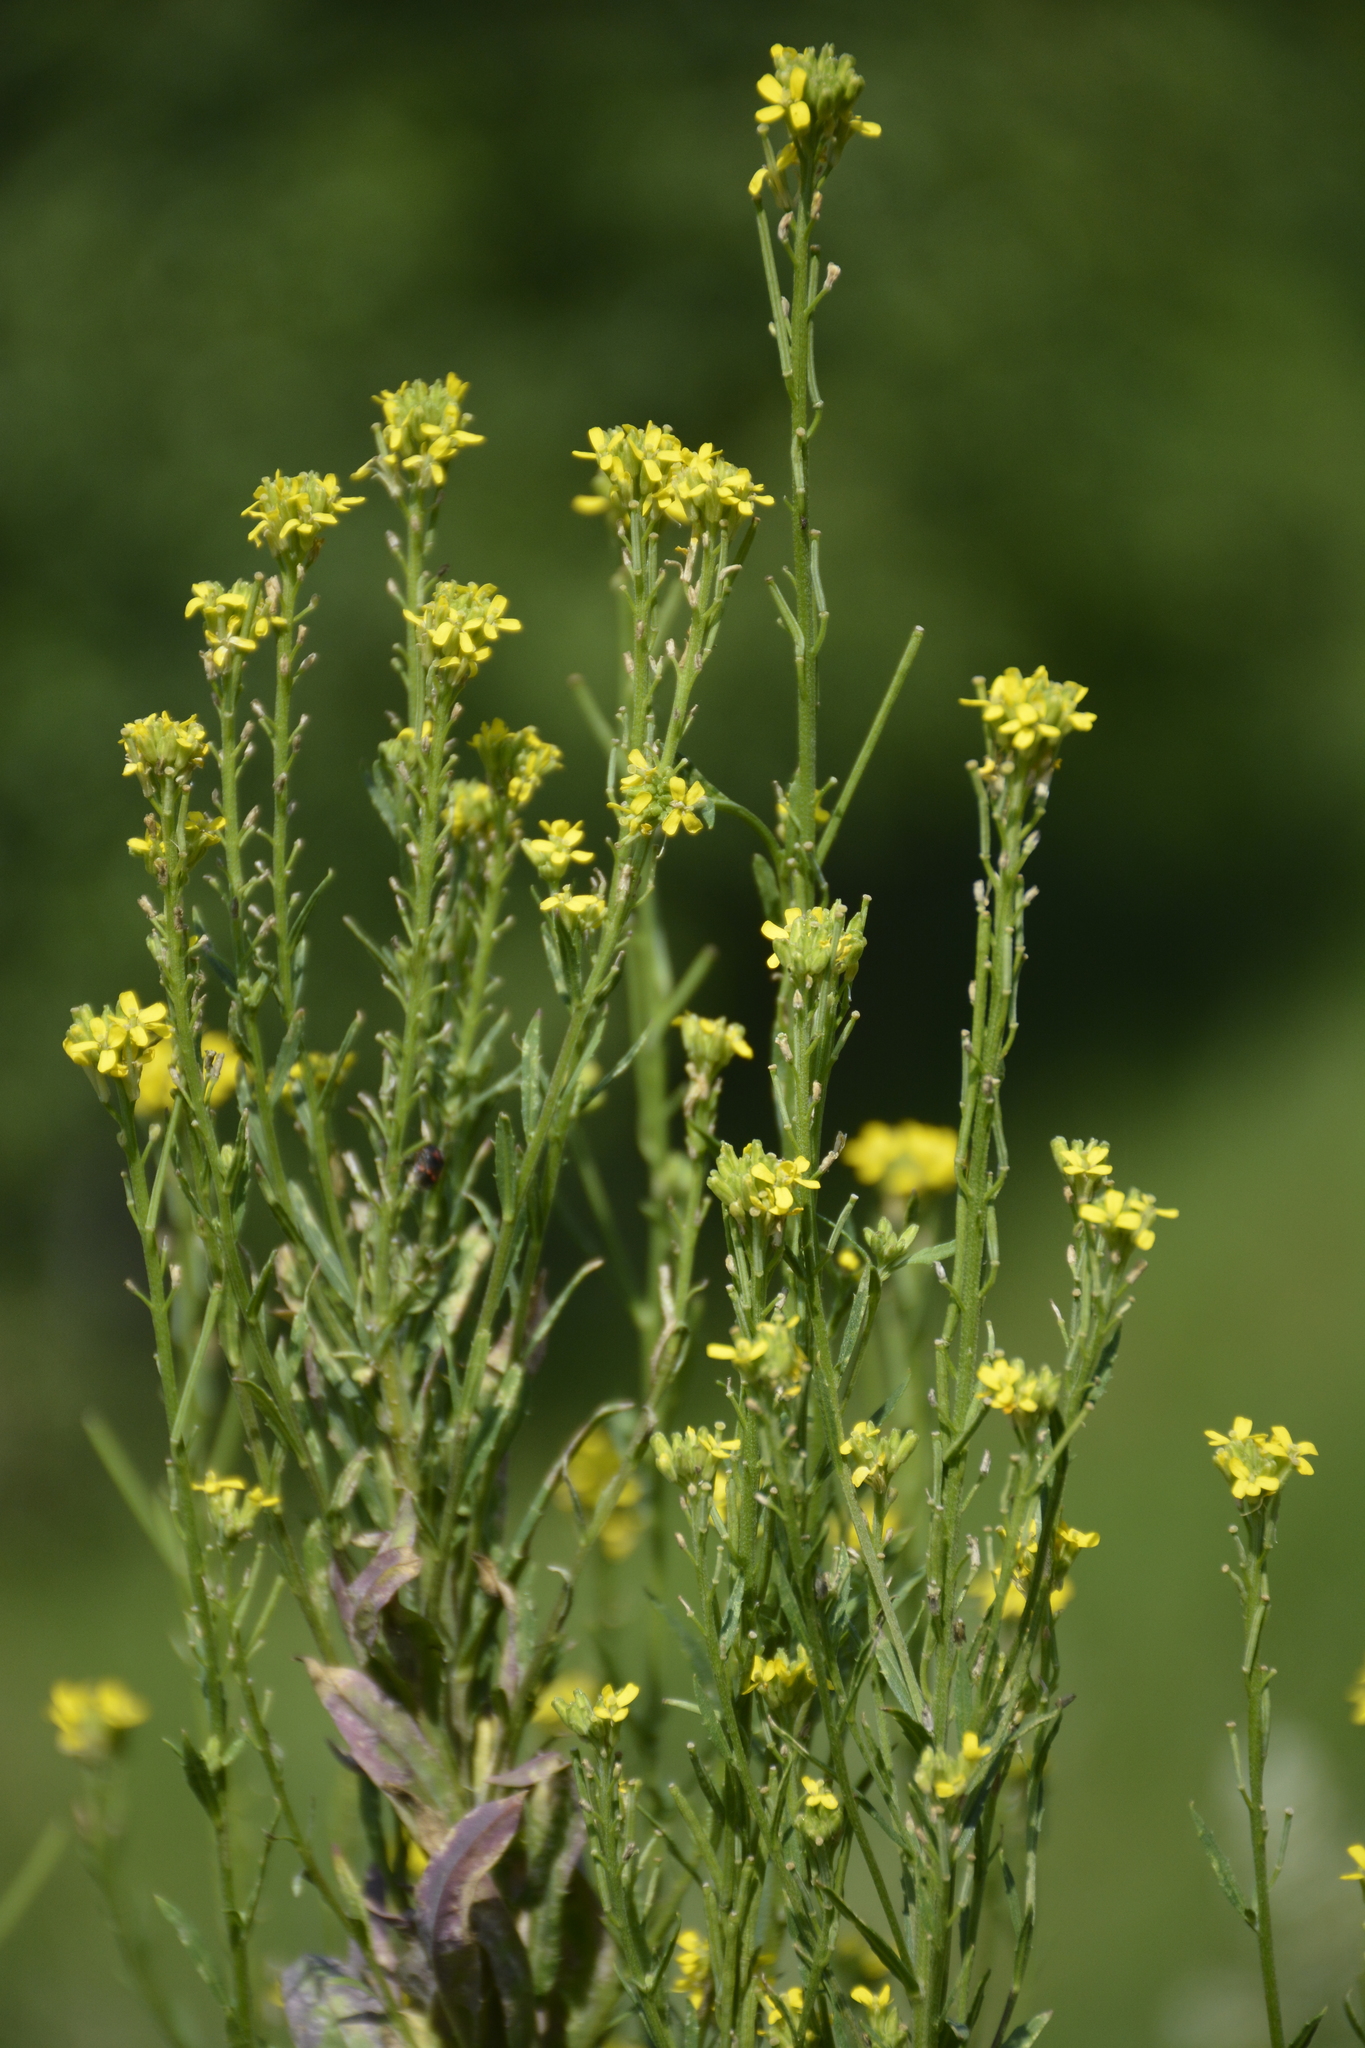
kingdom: Plantae
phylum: Tracheophyta
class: Magnoliopsida
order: Brassicales
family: Brassicaceae
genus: Erysimum
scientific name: Erysimum hieraciifolium
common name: European wallflower
